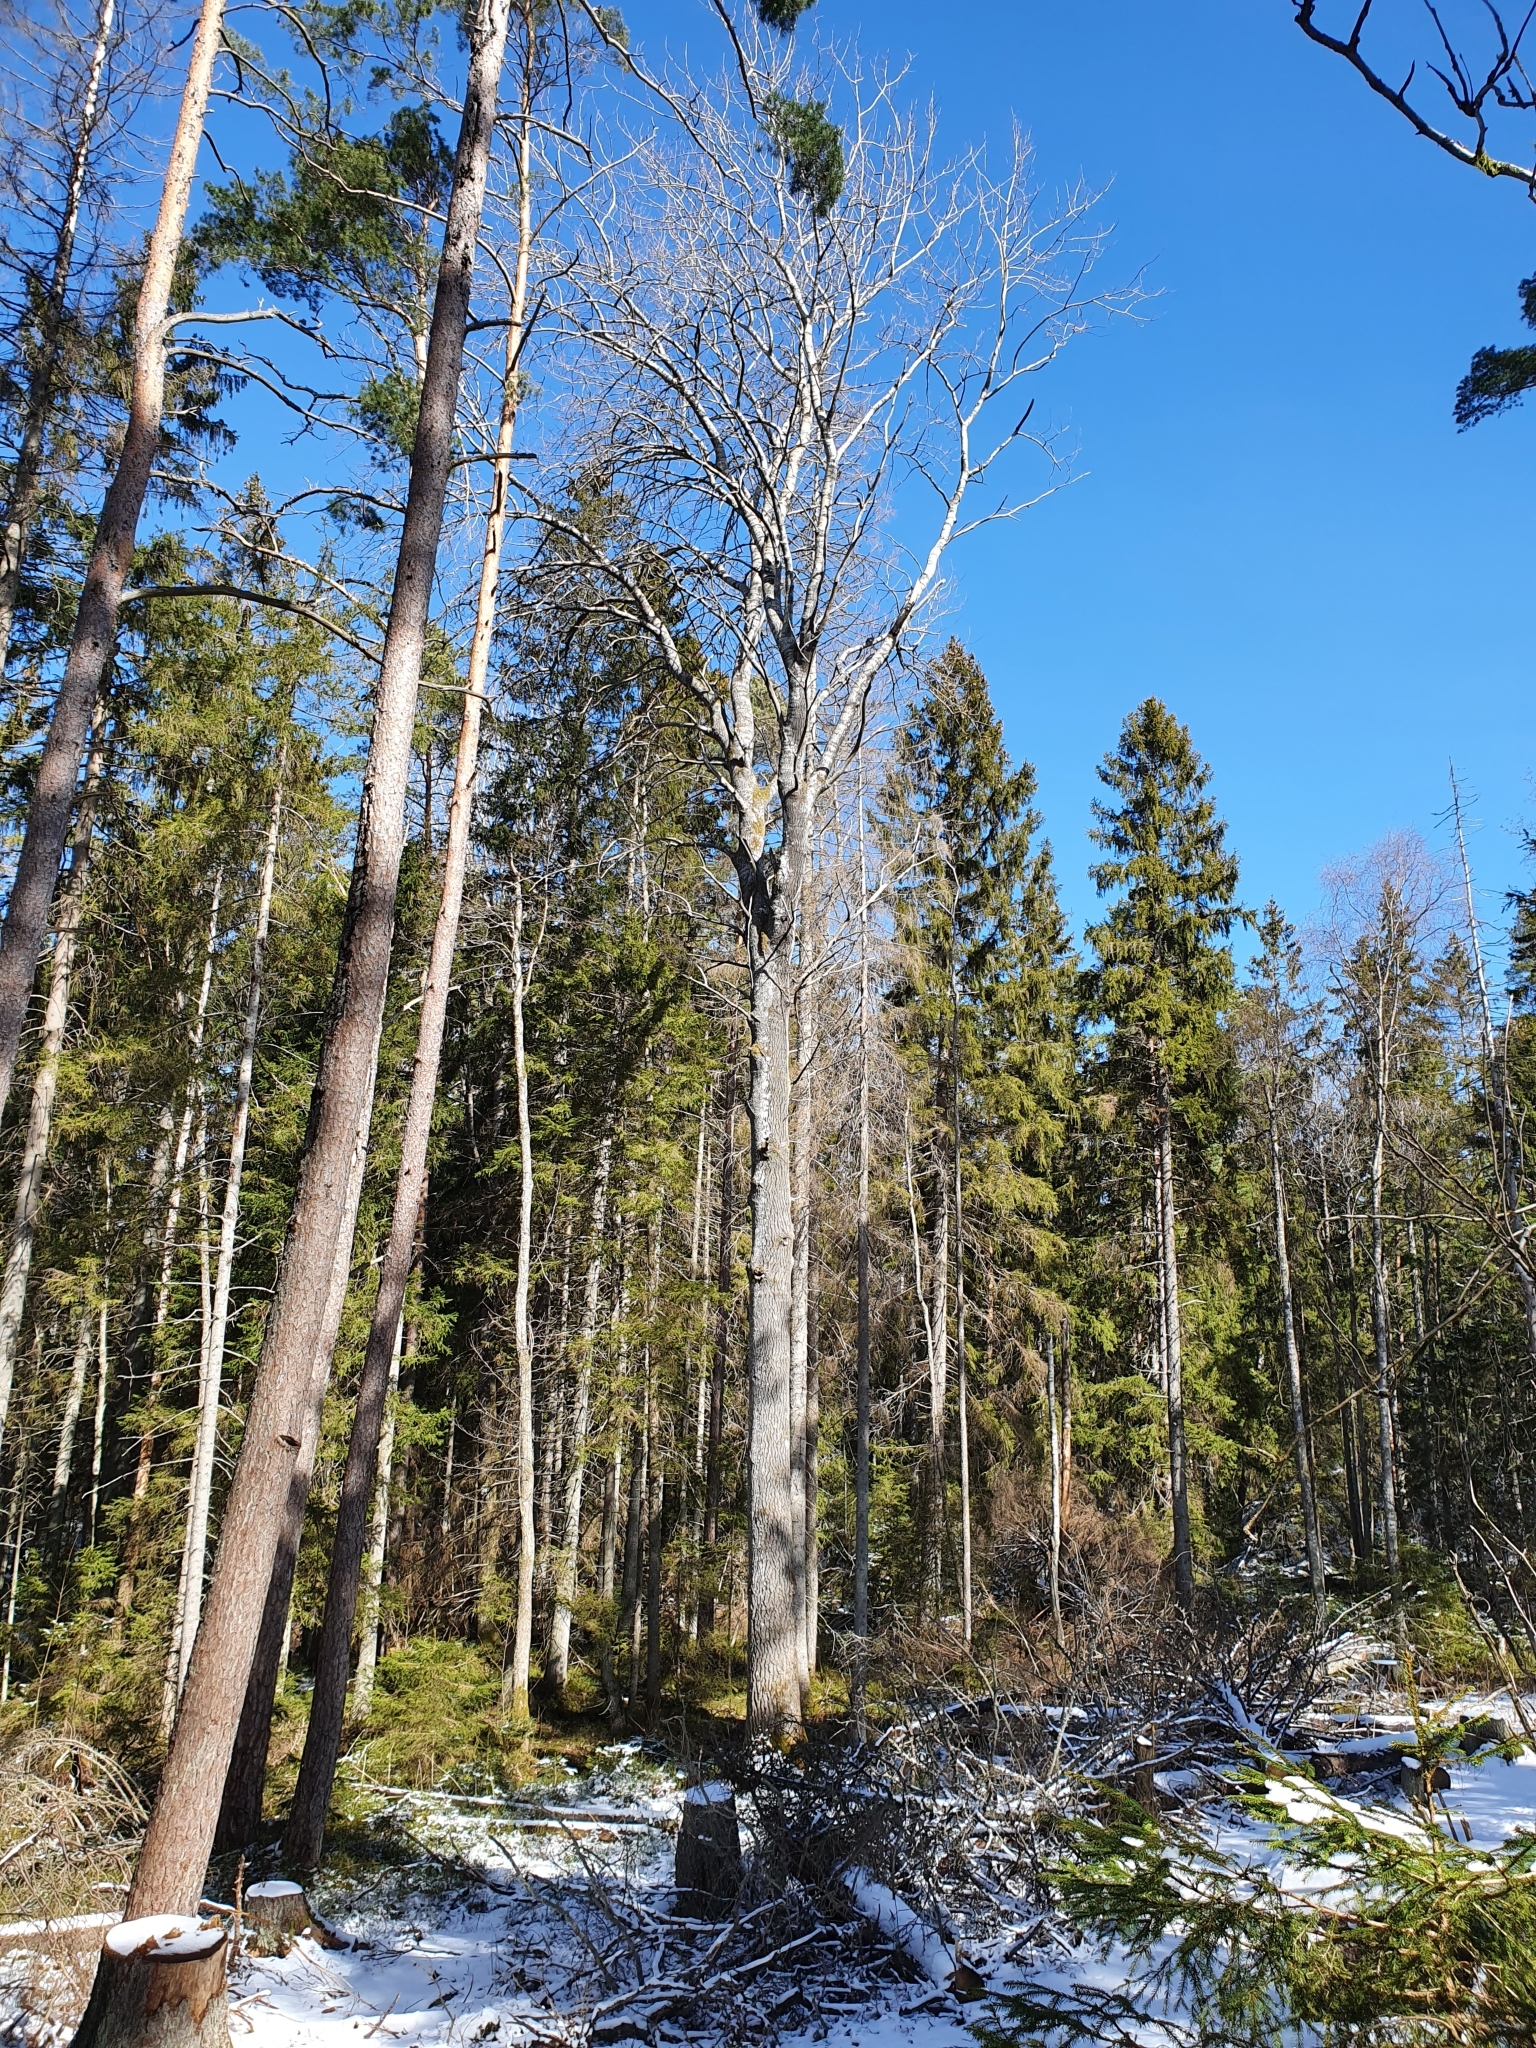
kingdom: Plantae
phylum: Tracheophyta
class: Magnoliopsida
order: Malpighiales
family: Salicaceae
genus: Populus
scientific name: Populus tremula
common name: European aspen
